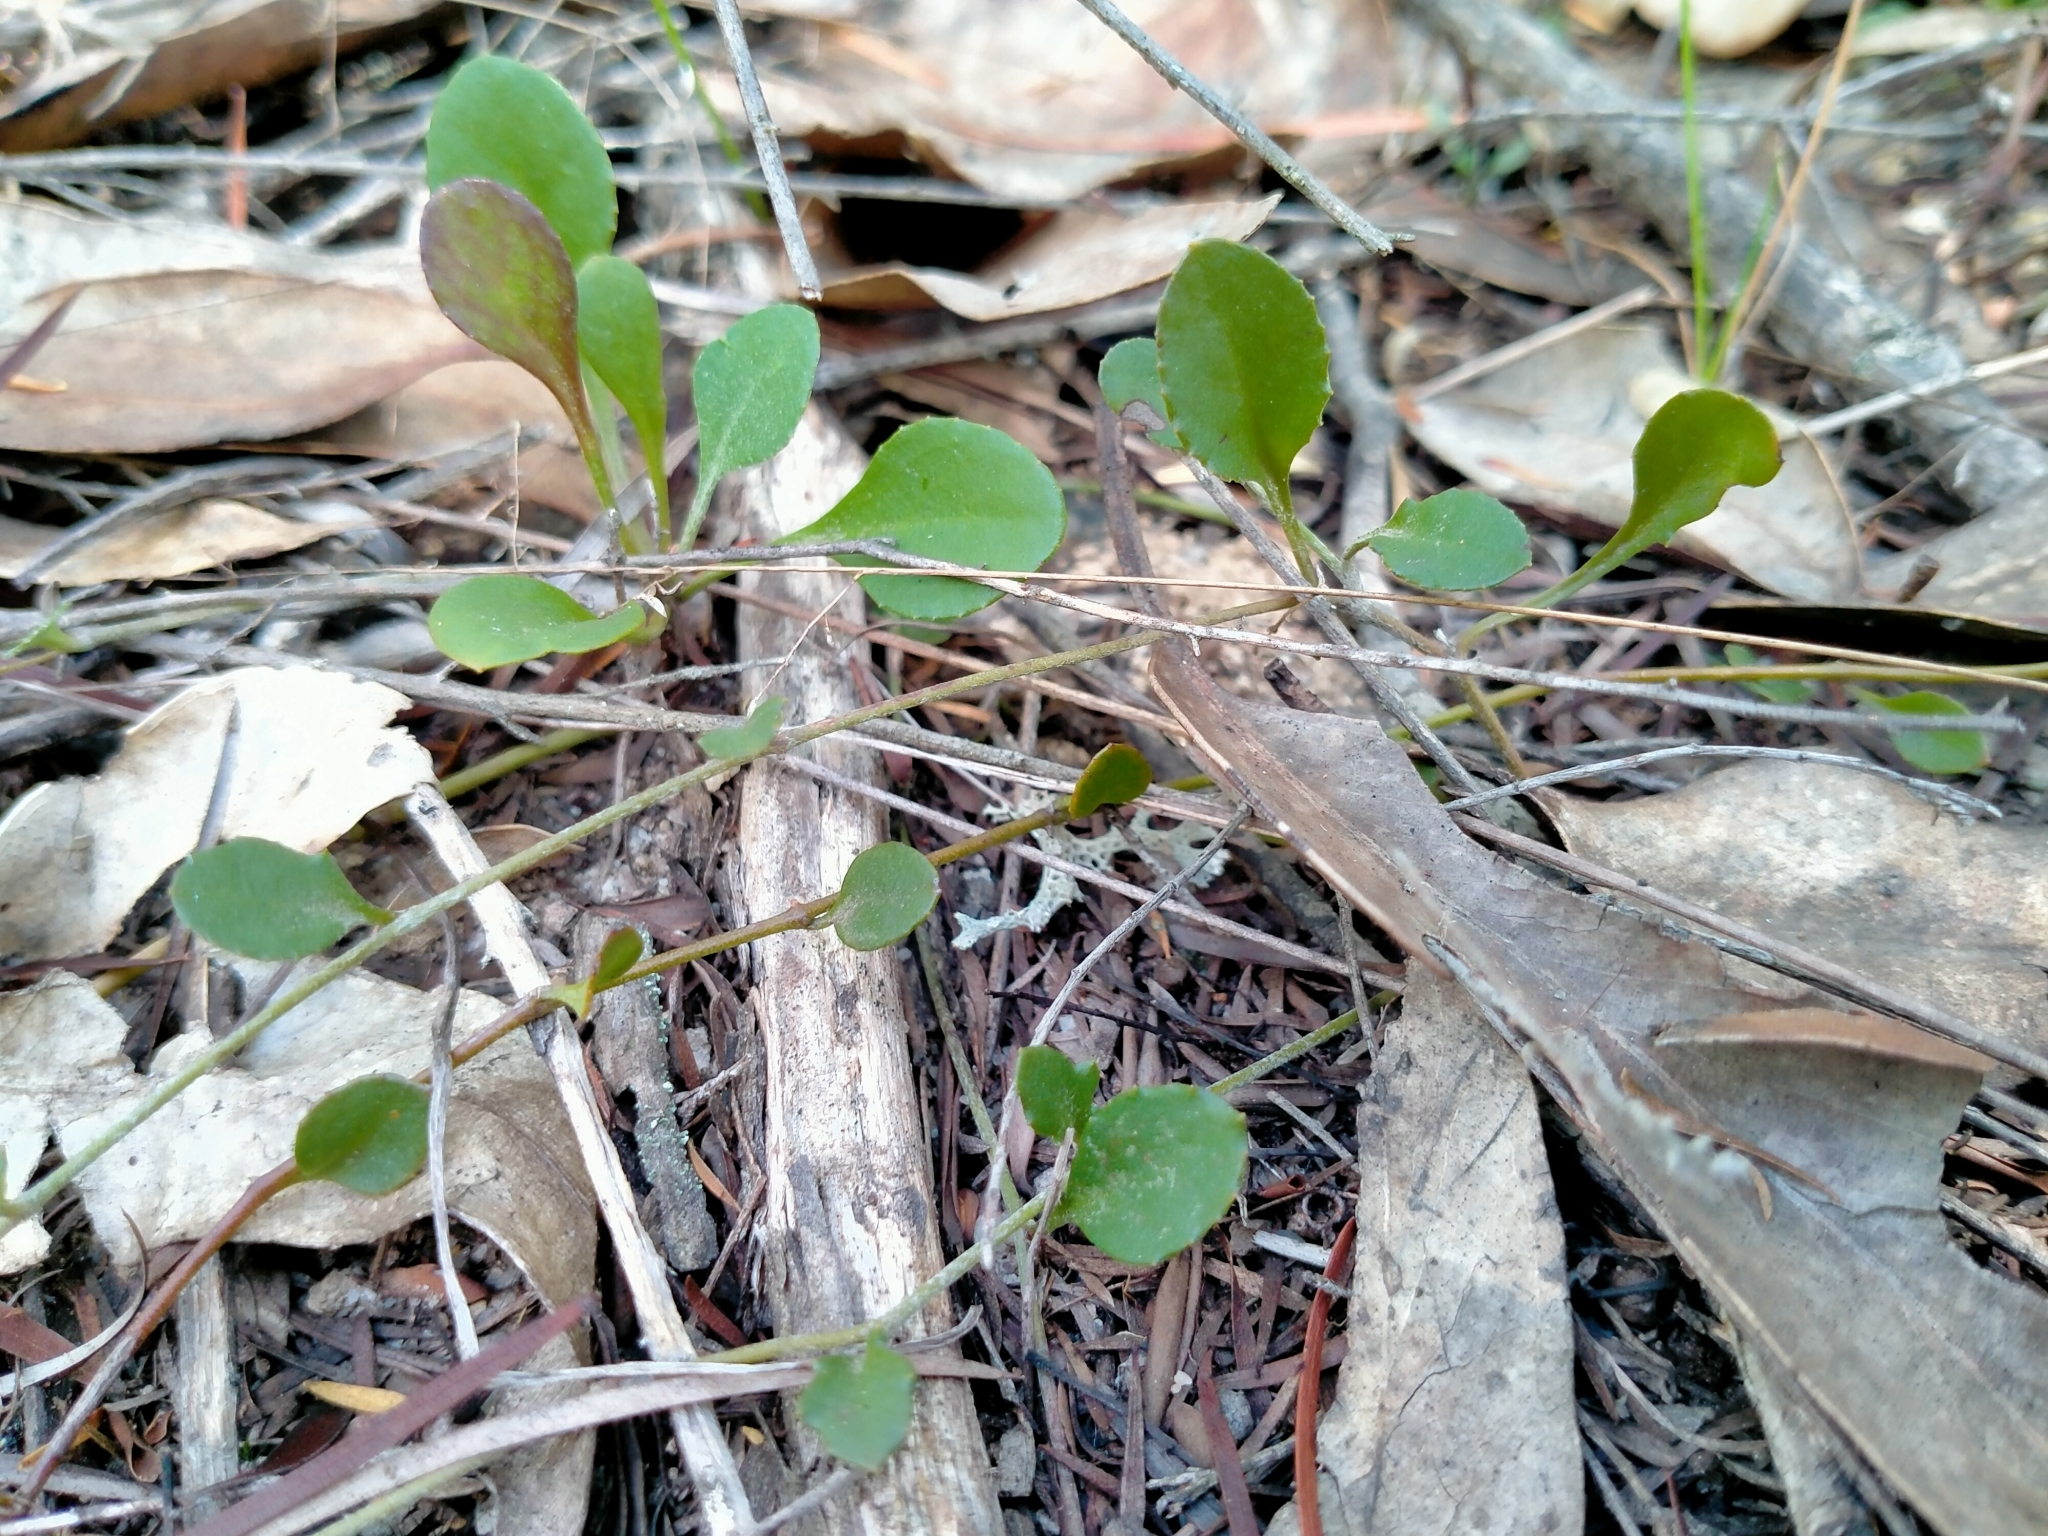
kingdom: Plantae
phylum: Tracheophyta
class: Magnoliopsida
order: Asterales
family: Goodeniaceae
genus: Goodenia
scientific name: Goodenia hederacea
